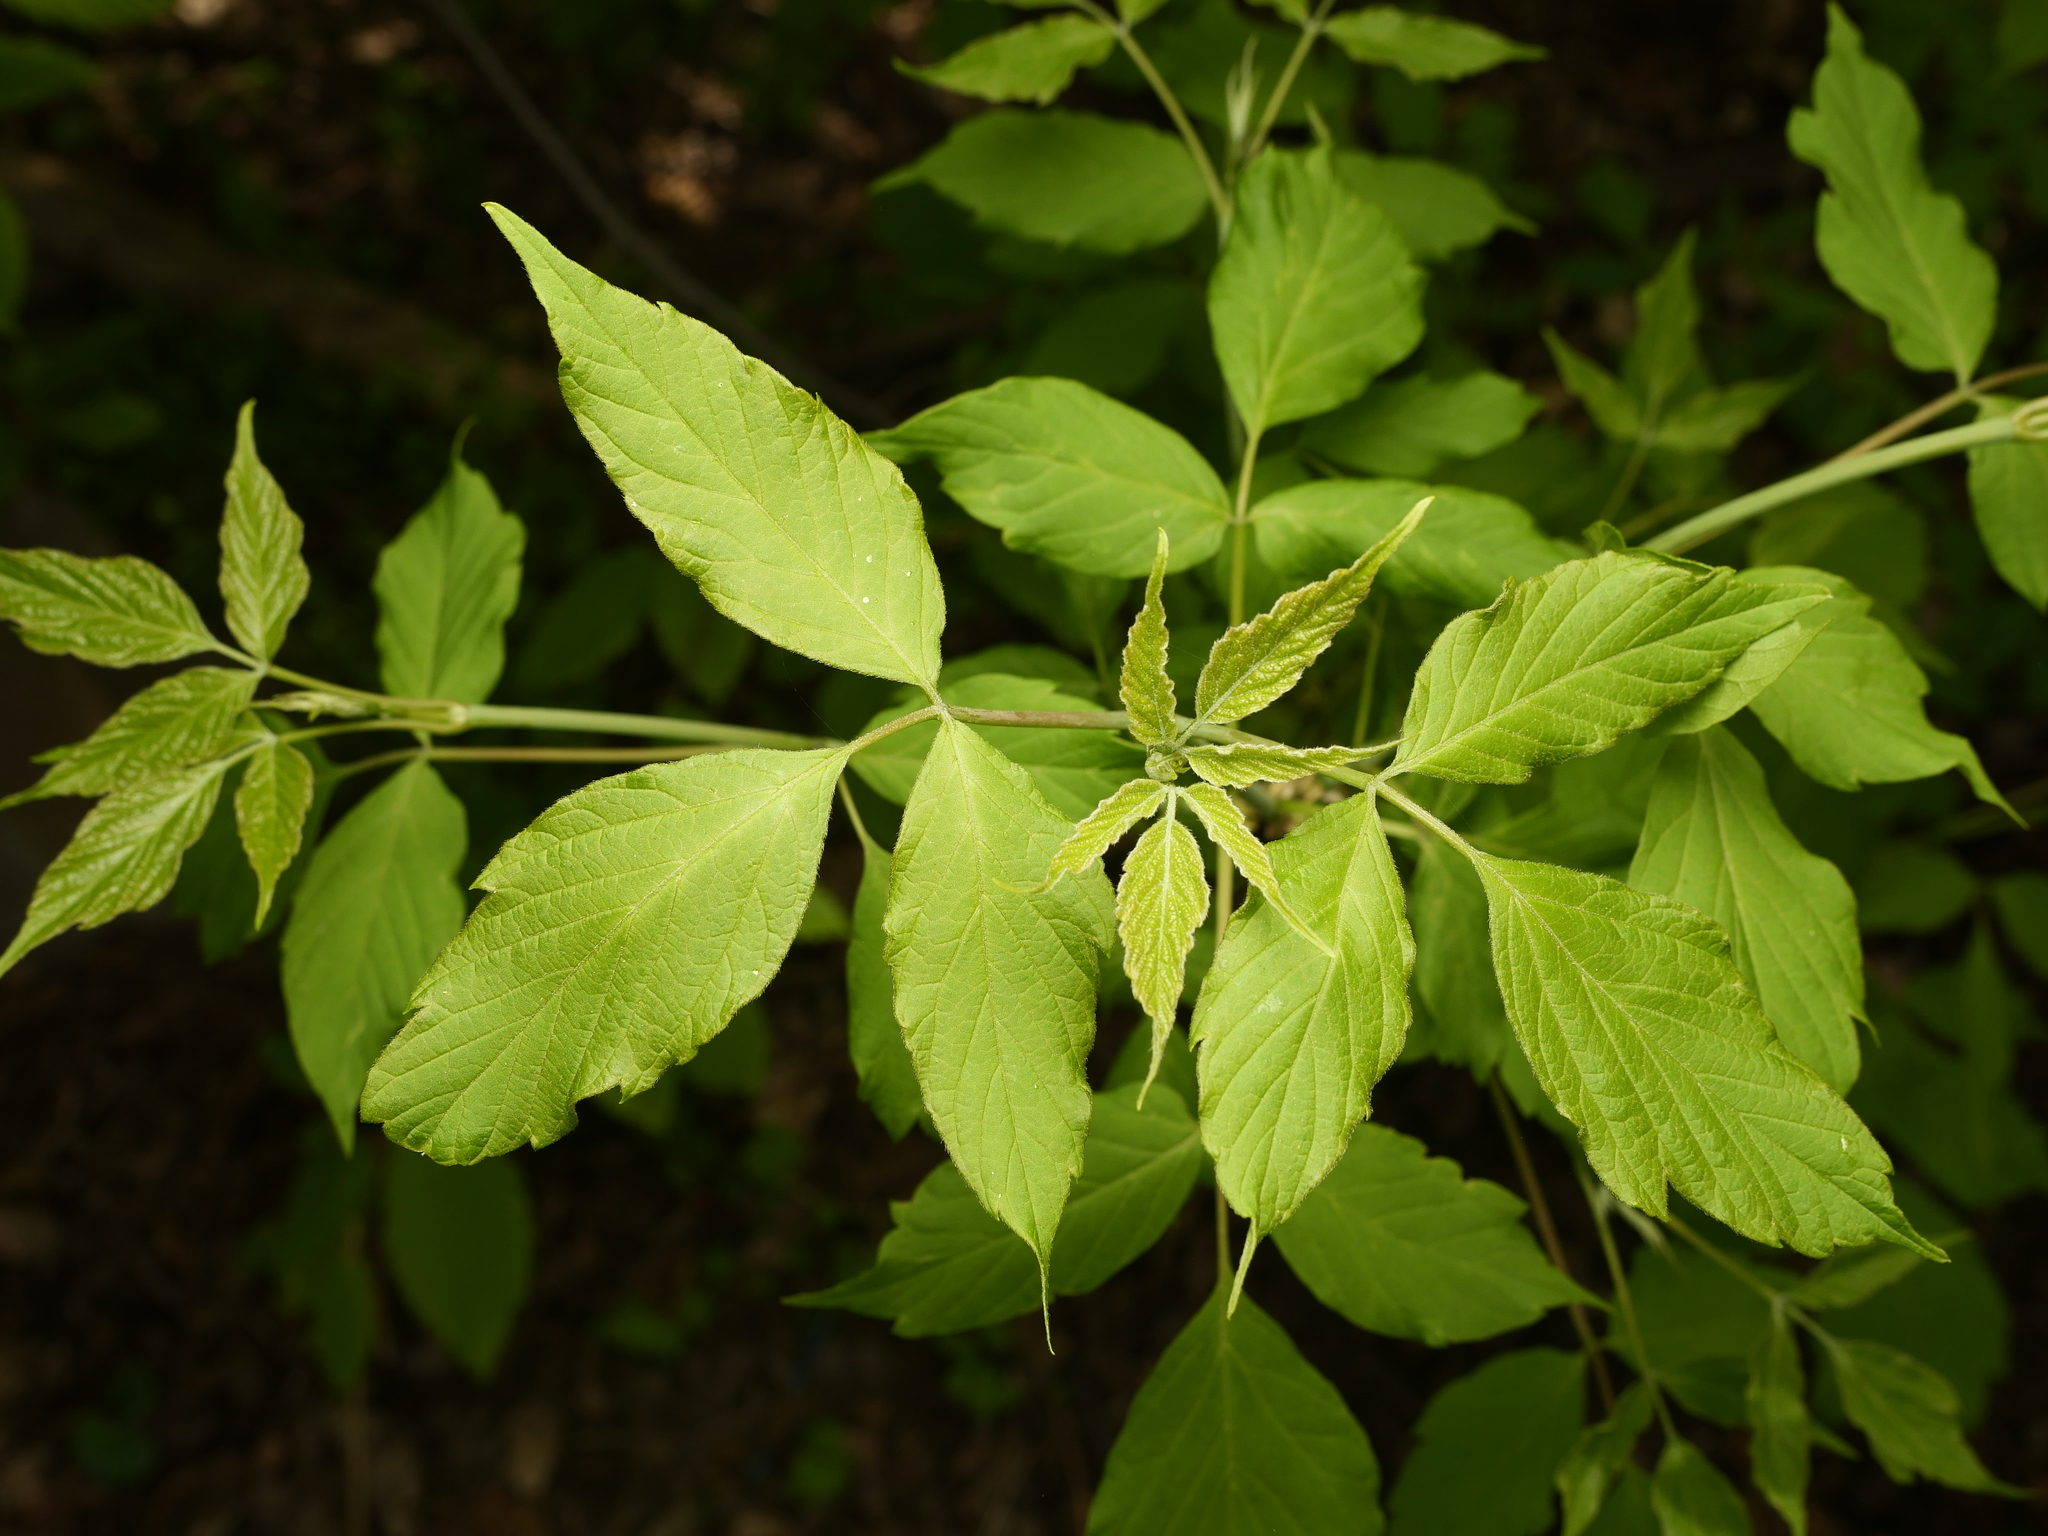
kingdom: Plantae
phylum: Tracheophyta
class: Magnoliopsida
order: Sapindales
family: Sapindaceae
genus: Acer
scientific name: Acer negundo
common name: Ashleaf maple
